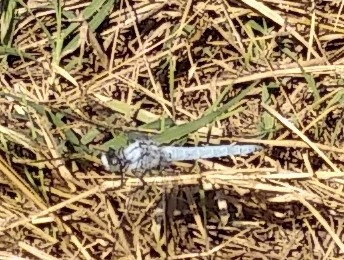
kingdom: Animalia
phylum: Arthropoda
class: Insecta
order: Odonata
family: Libellulidae
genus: Orthetrum
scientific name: Orthetrum brunneum
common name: Southern skimmer
